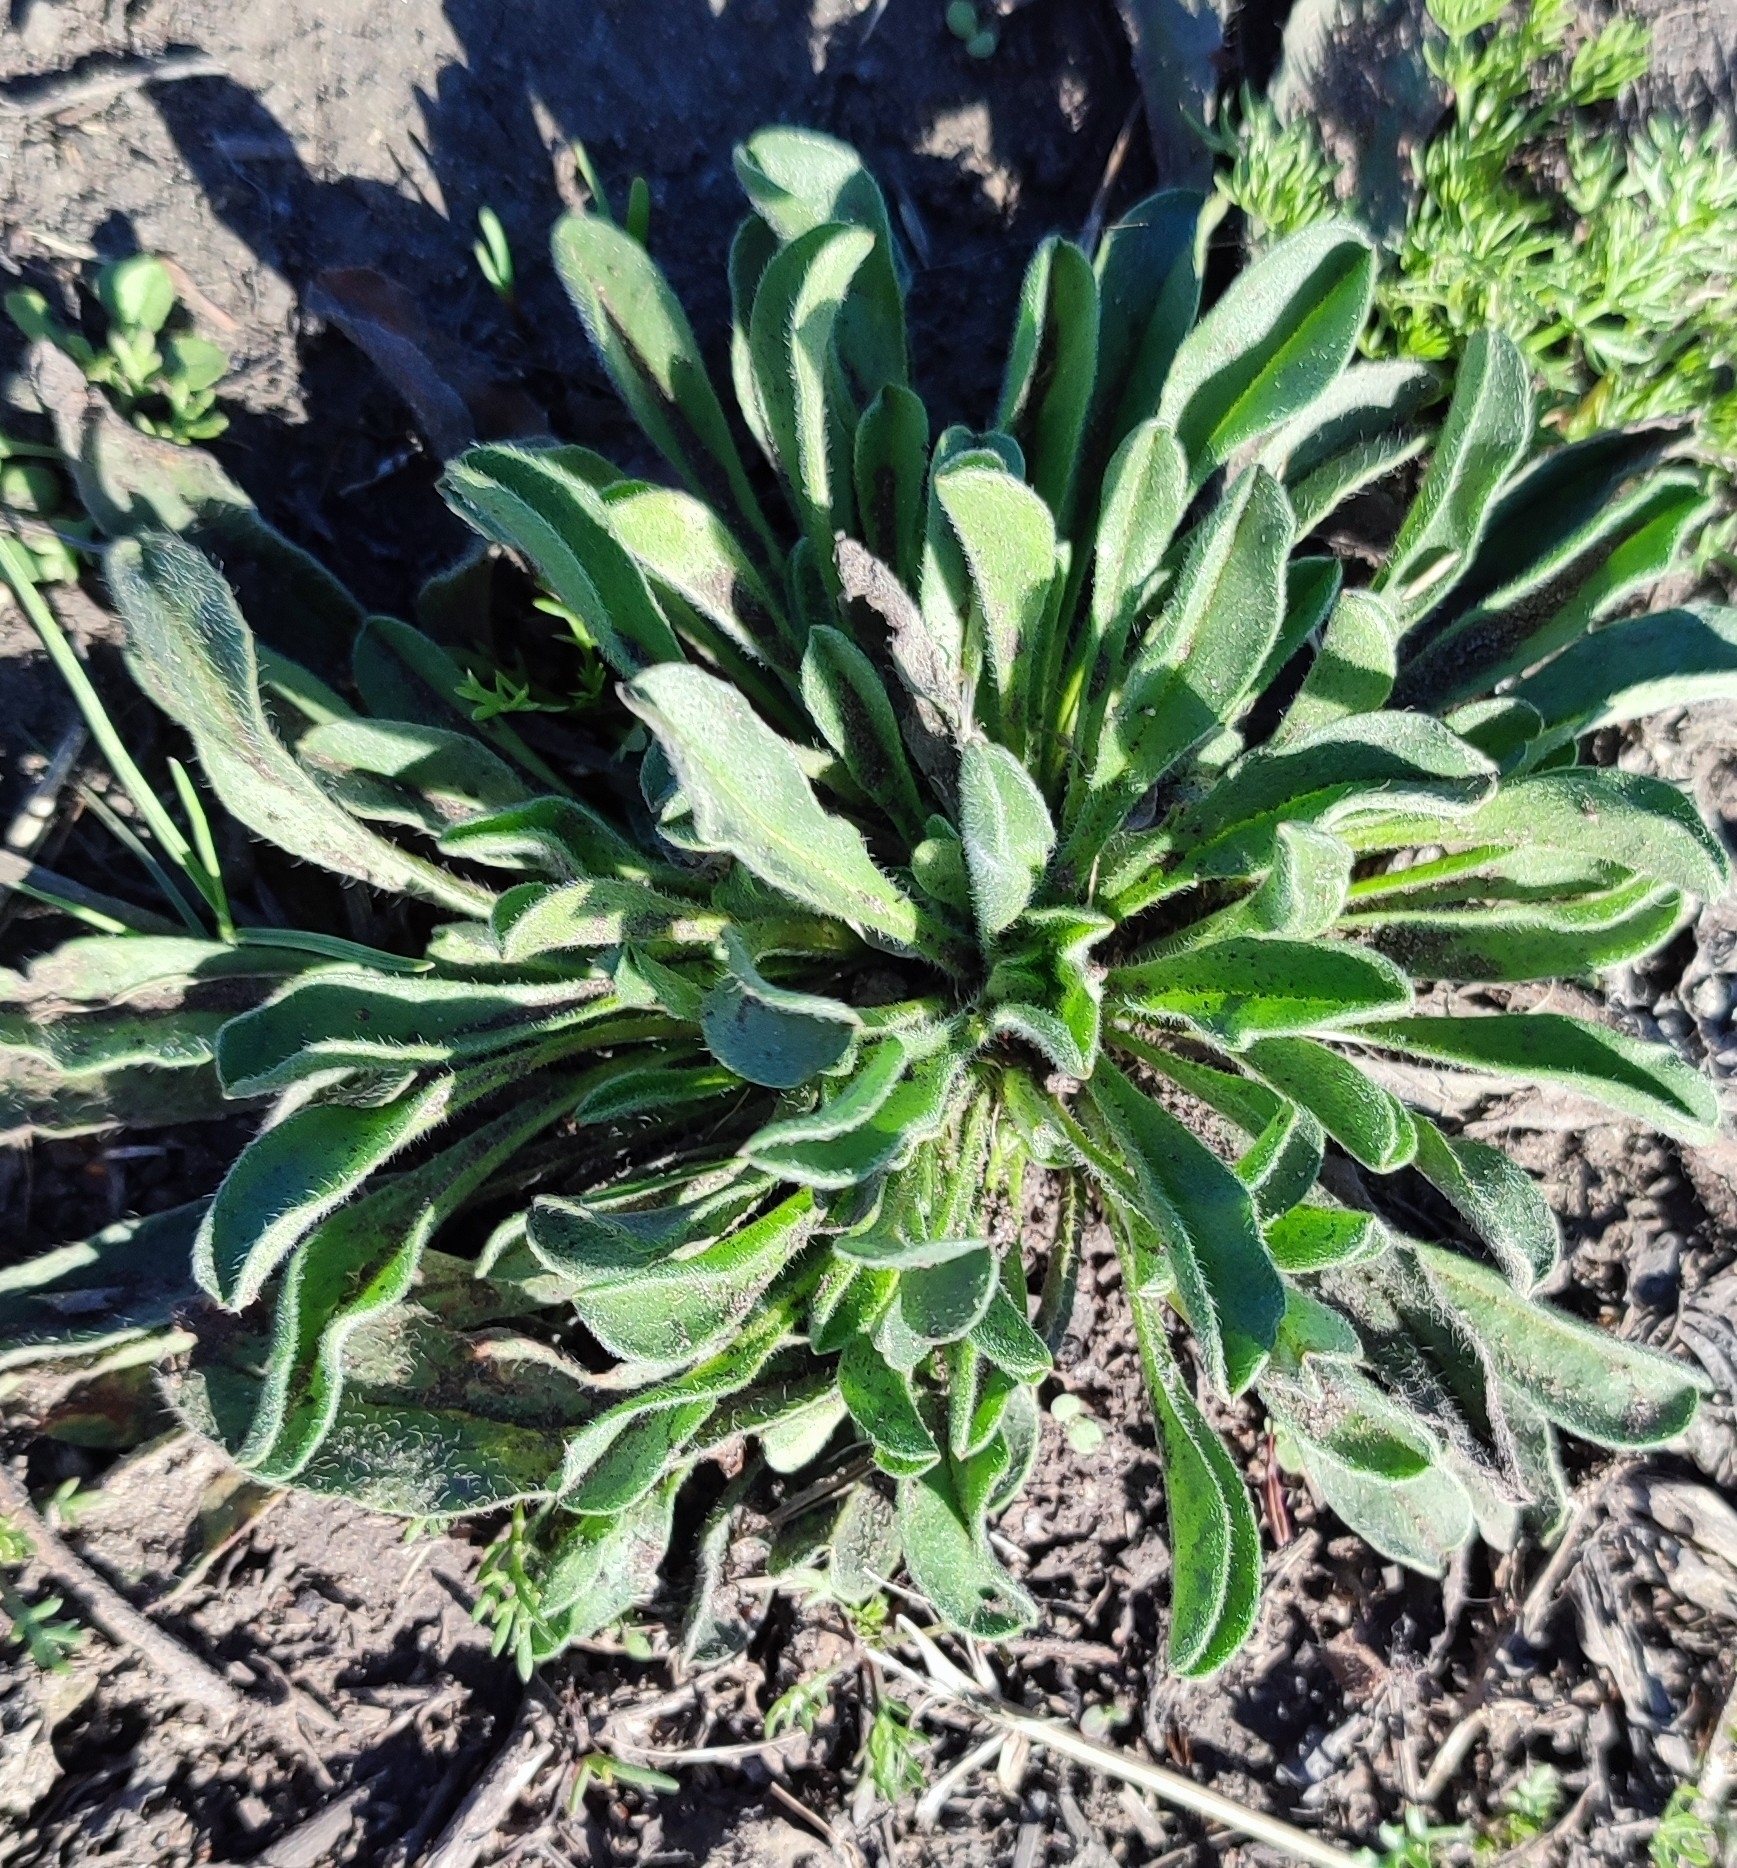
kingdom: Plantae
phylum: Tracheophyta
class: Magnoliopsida
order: Brassicales
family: Brassicaceae
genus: Berteroa
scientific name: Berteroa incana
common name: Hoary alison
